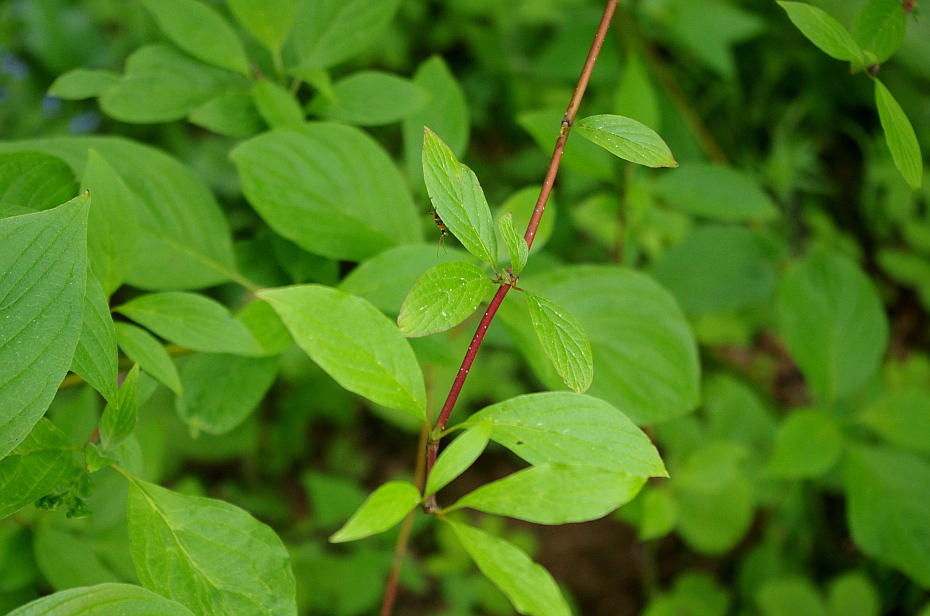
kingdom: Plantae
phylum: Tracheophyta
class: Magnoliopsida
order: Cornales
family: Cornaceae
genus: Cornus
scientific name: Cornus sericea
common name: Red-osier dogwood
